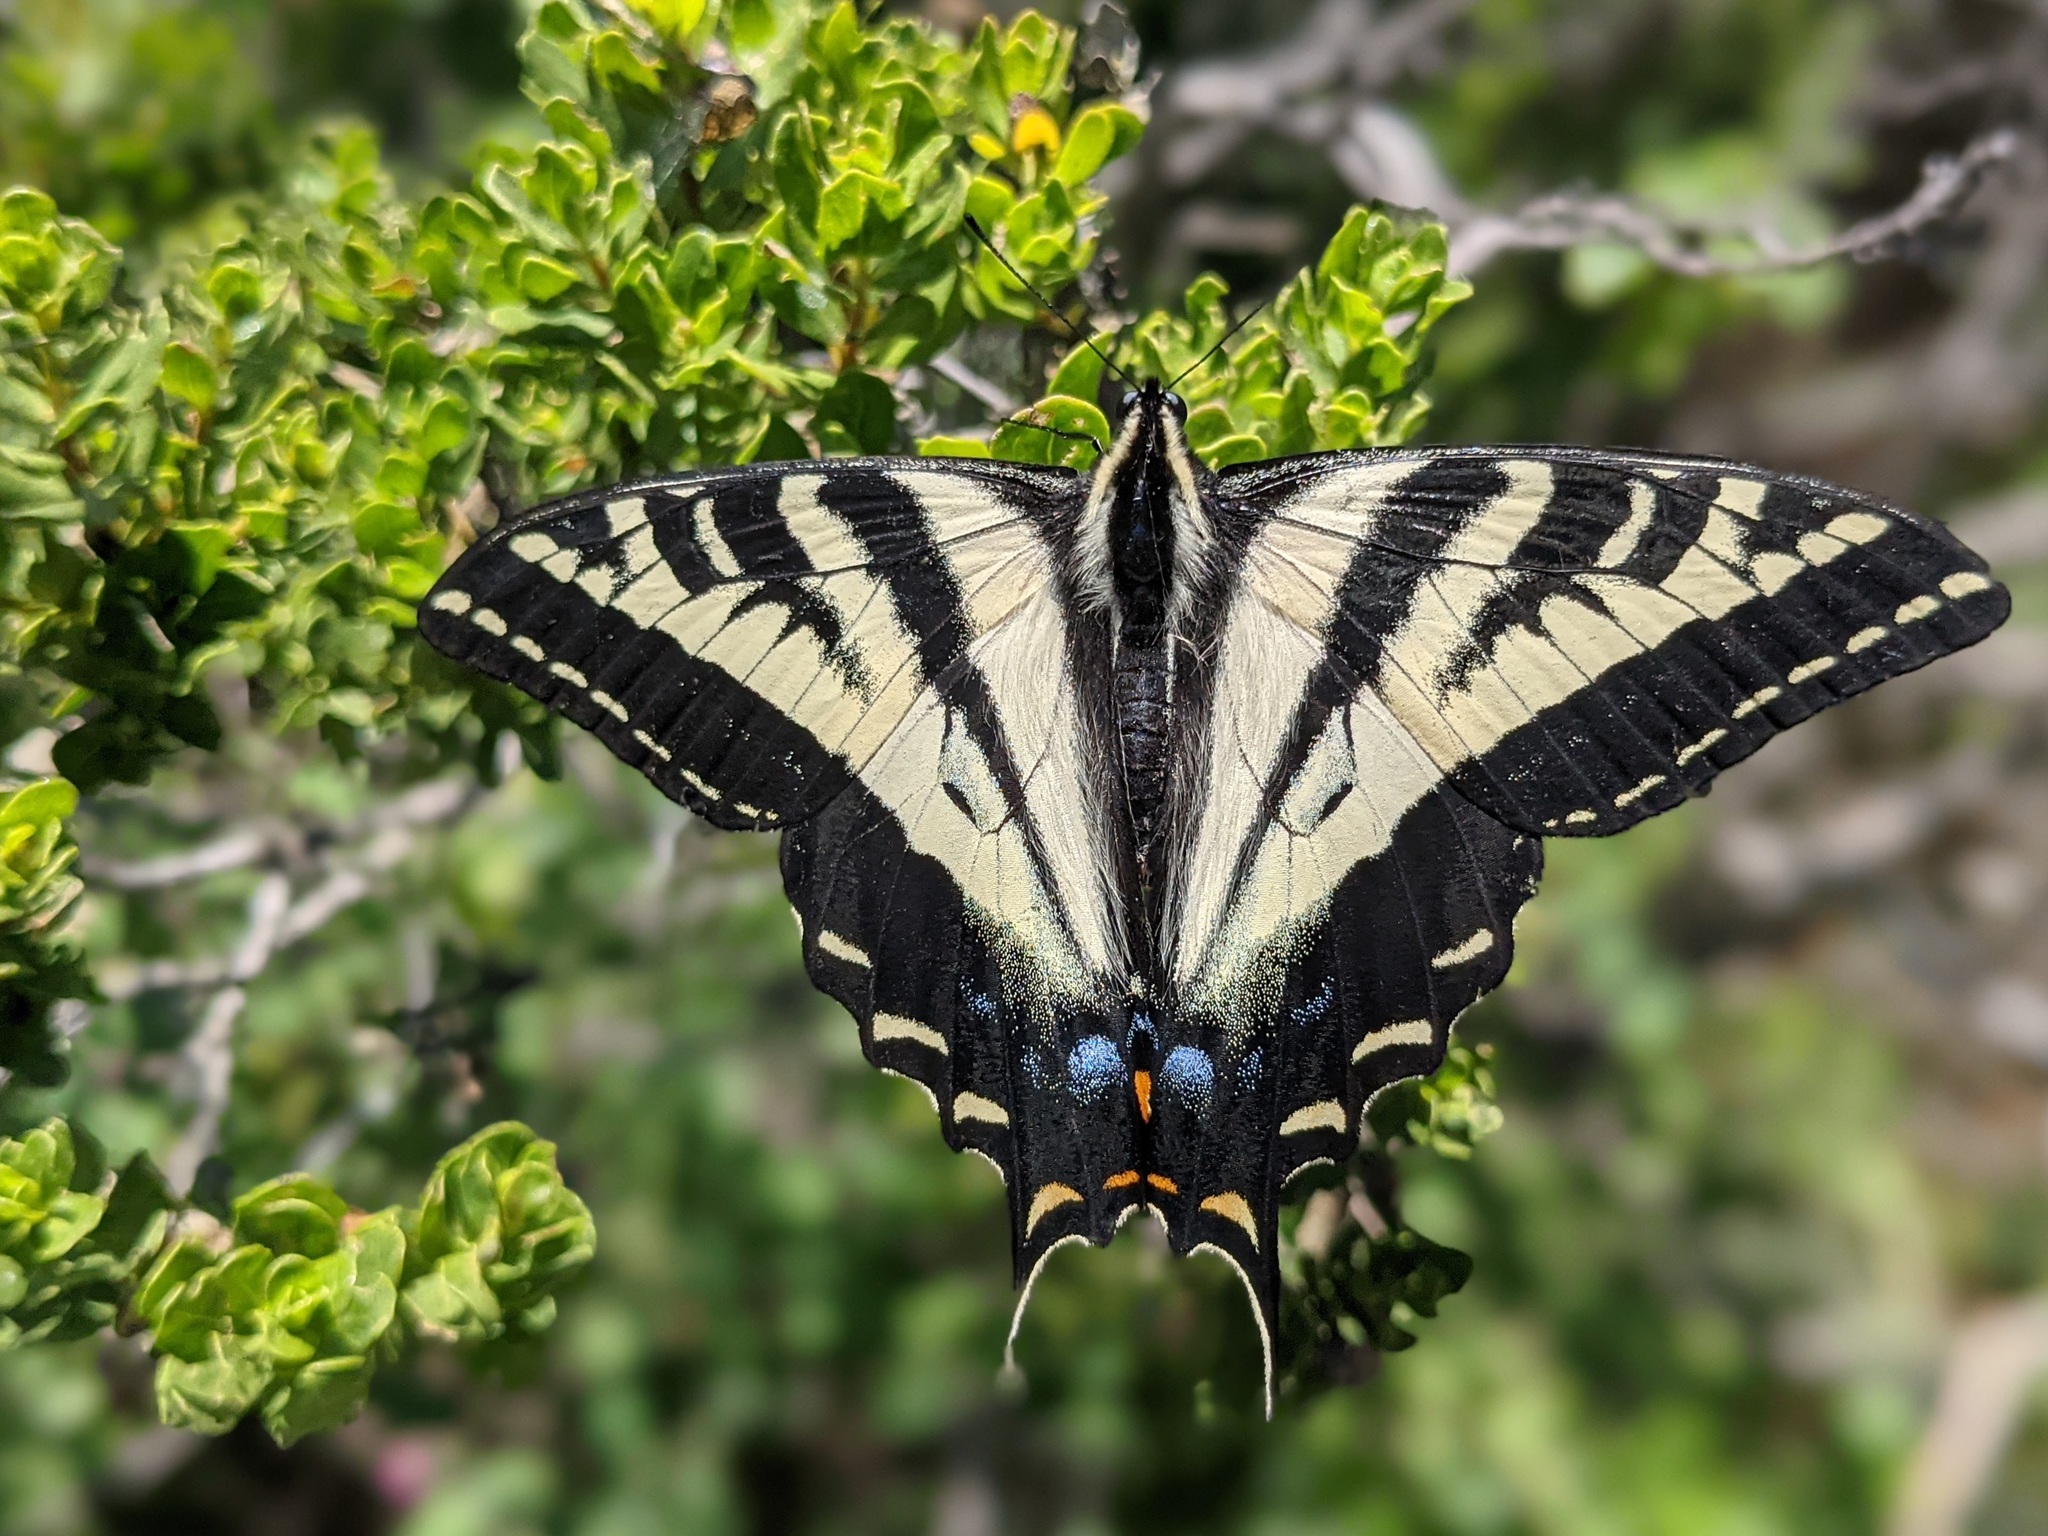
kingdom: Animalia
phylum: Arthropoda
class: Insecta
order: Lepidoptera
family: Papilionidae
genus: Papilio
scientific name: Papilio eurymedon
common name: Pale tiger swallowtail
